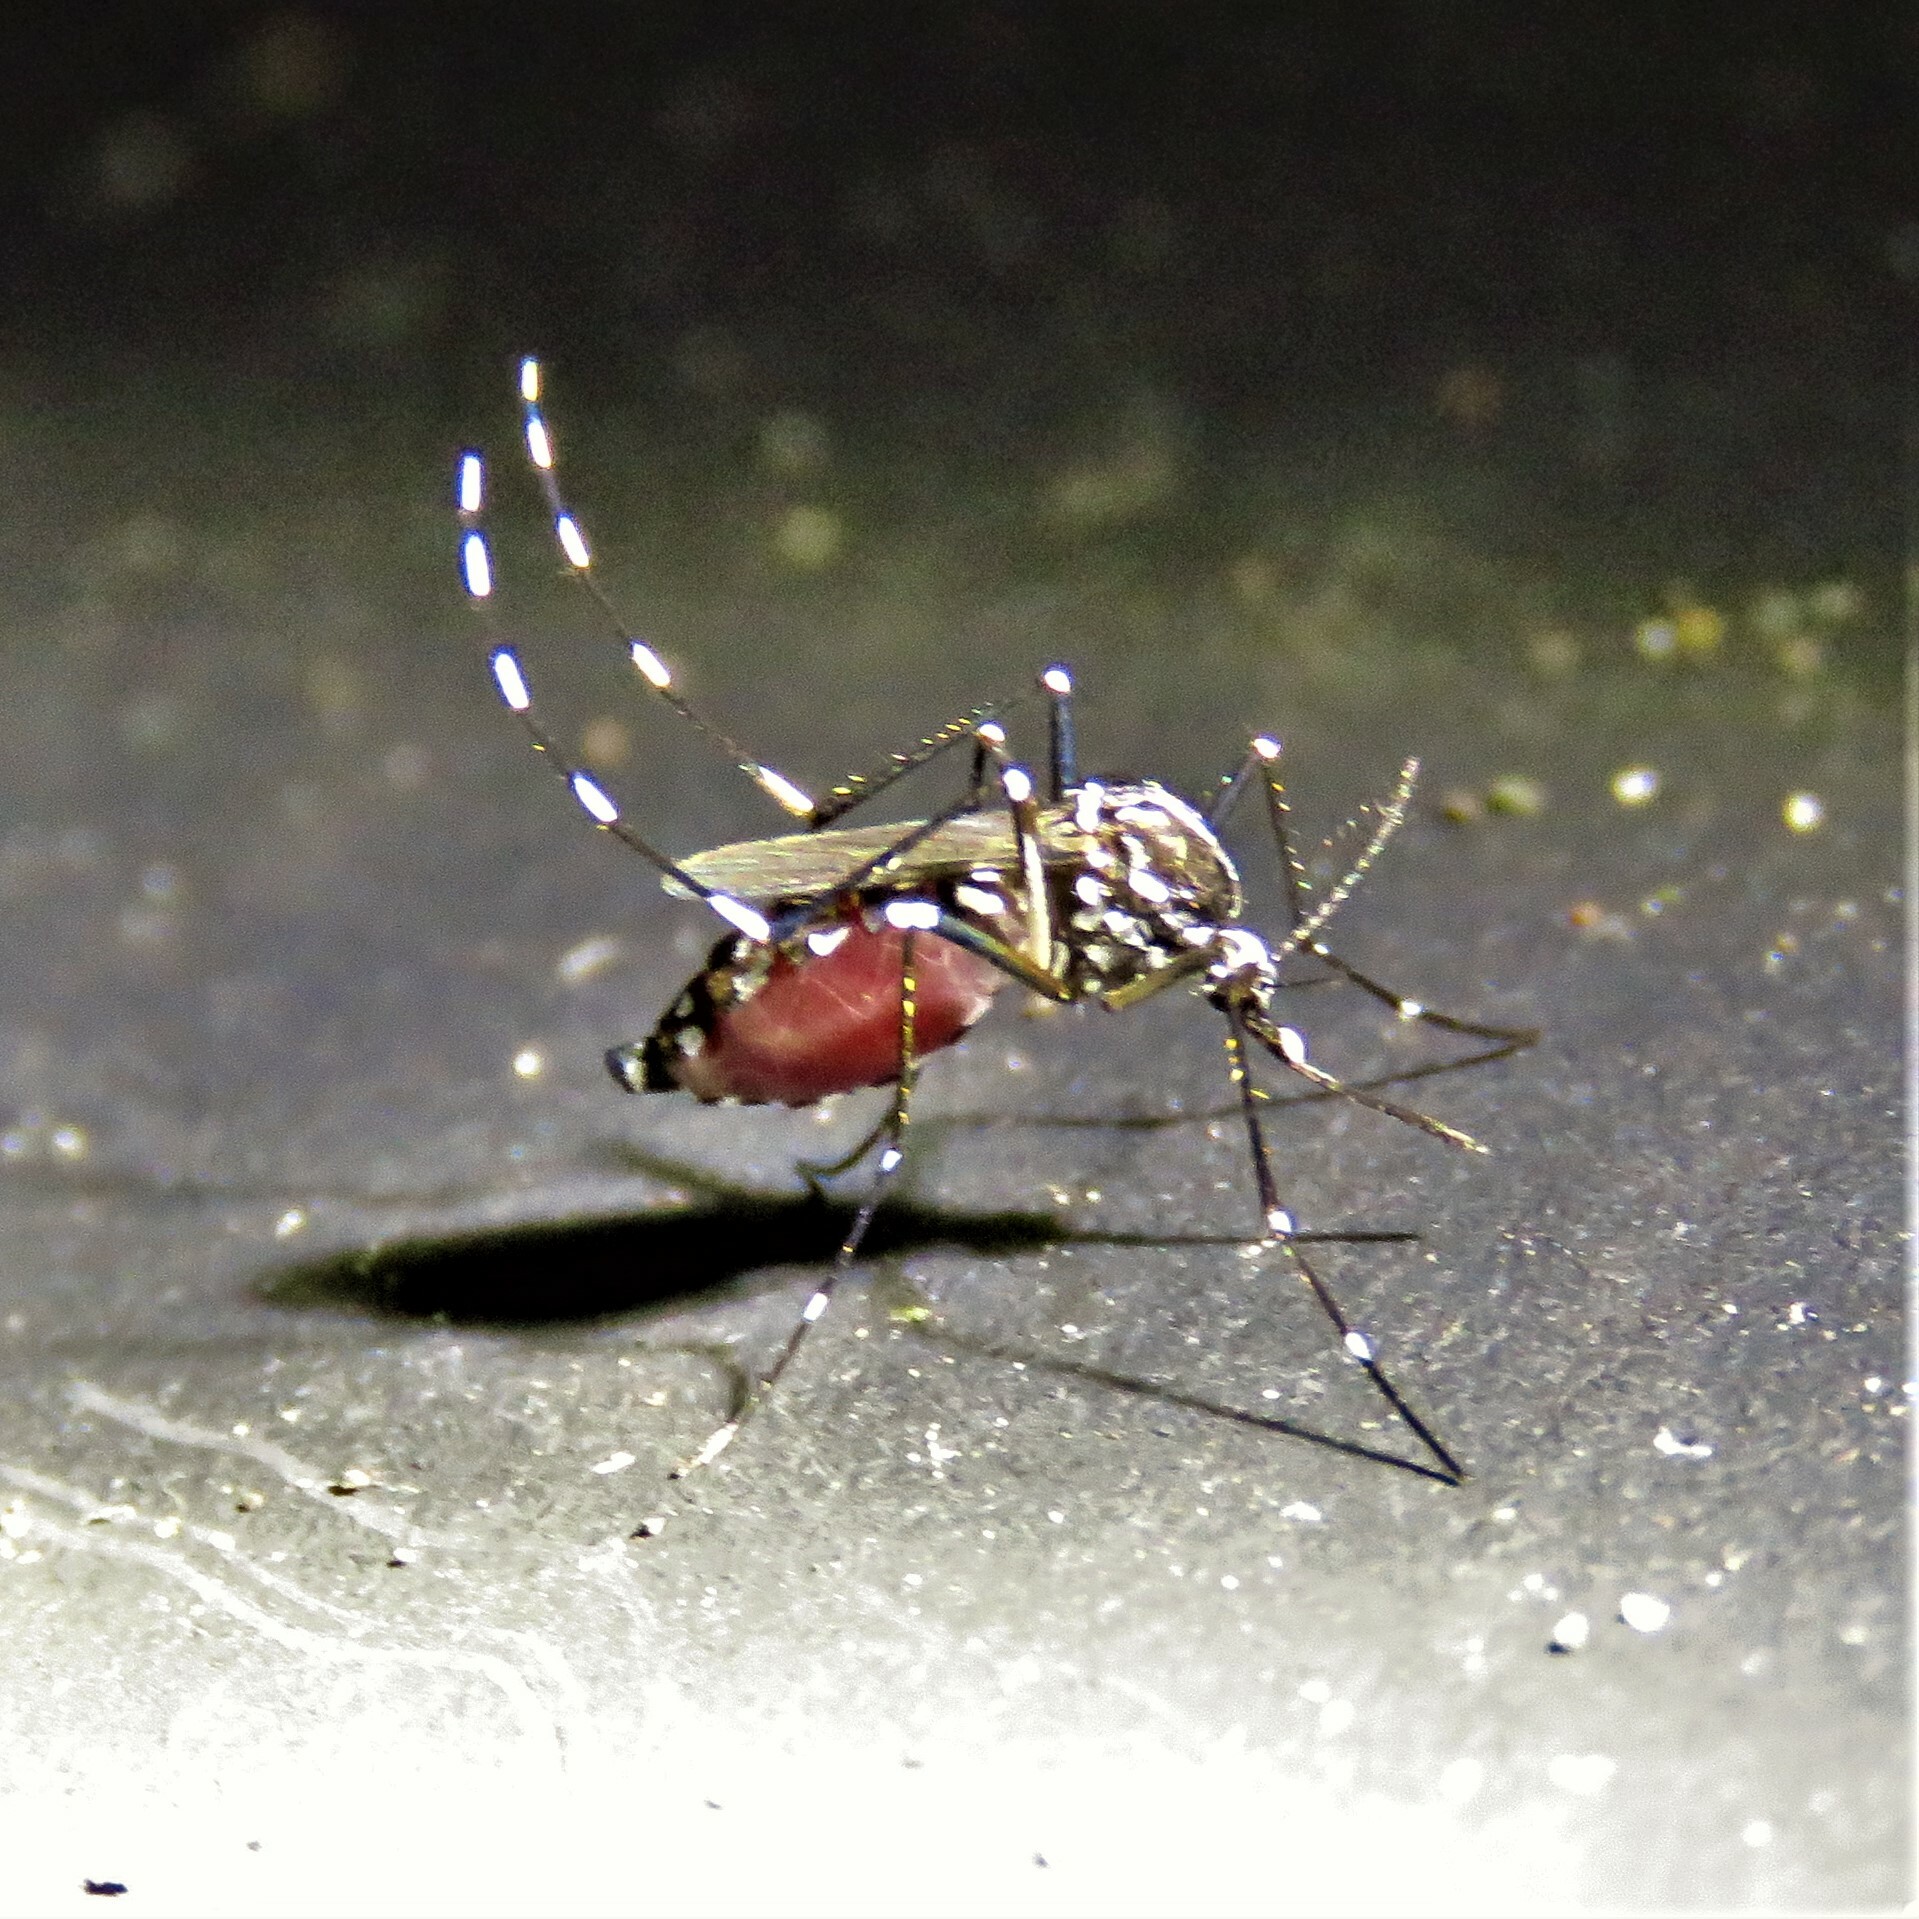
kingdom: Animalia
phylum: Arthropoda
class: Insecta
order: Diptera
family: Culicidae
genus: Aedes
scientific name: Aedes albopictus
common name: Tiger mosquito
